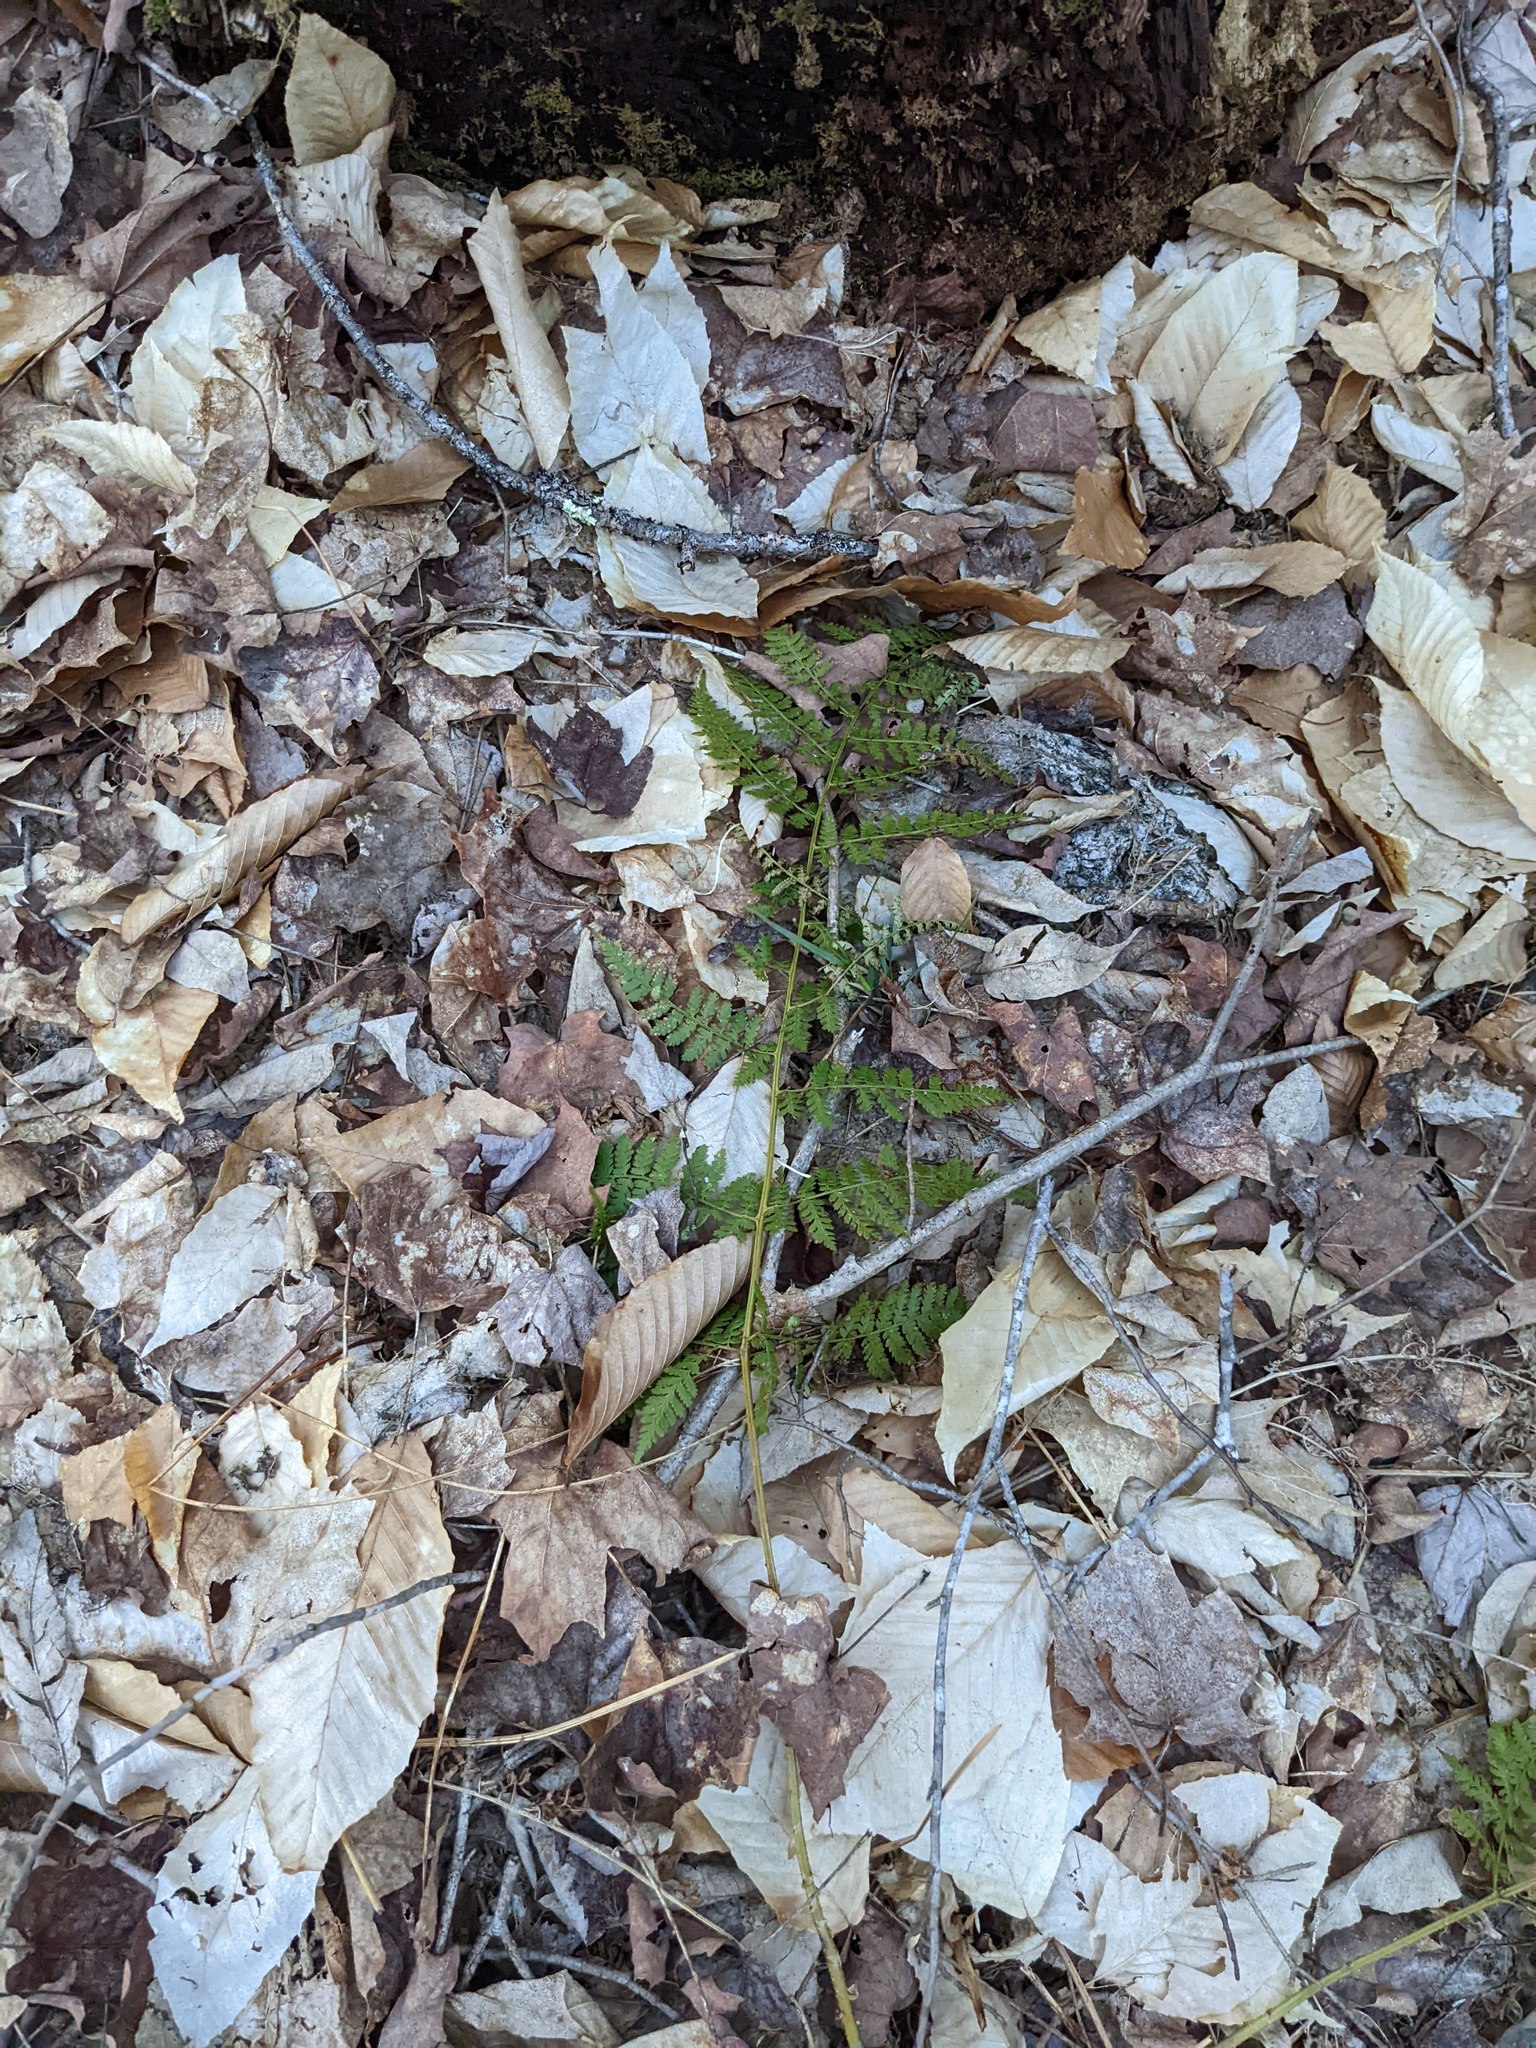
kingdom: Plantae
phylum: Tracheophyta
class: Polypodiopsida
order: Polypodiales
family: Dryopteridaceae
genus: Dryopteris
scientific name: Dryopteris intermedia
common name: Evergreen wood fern
